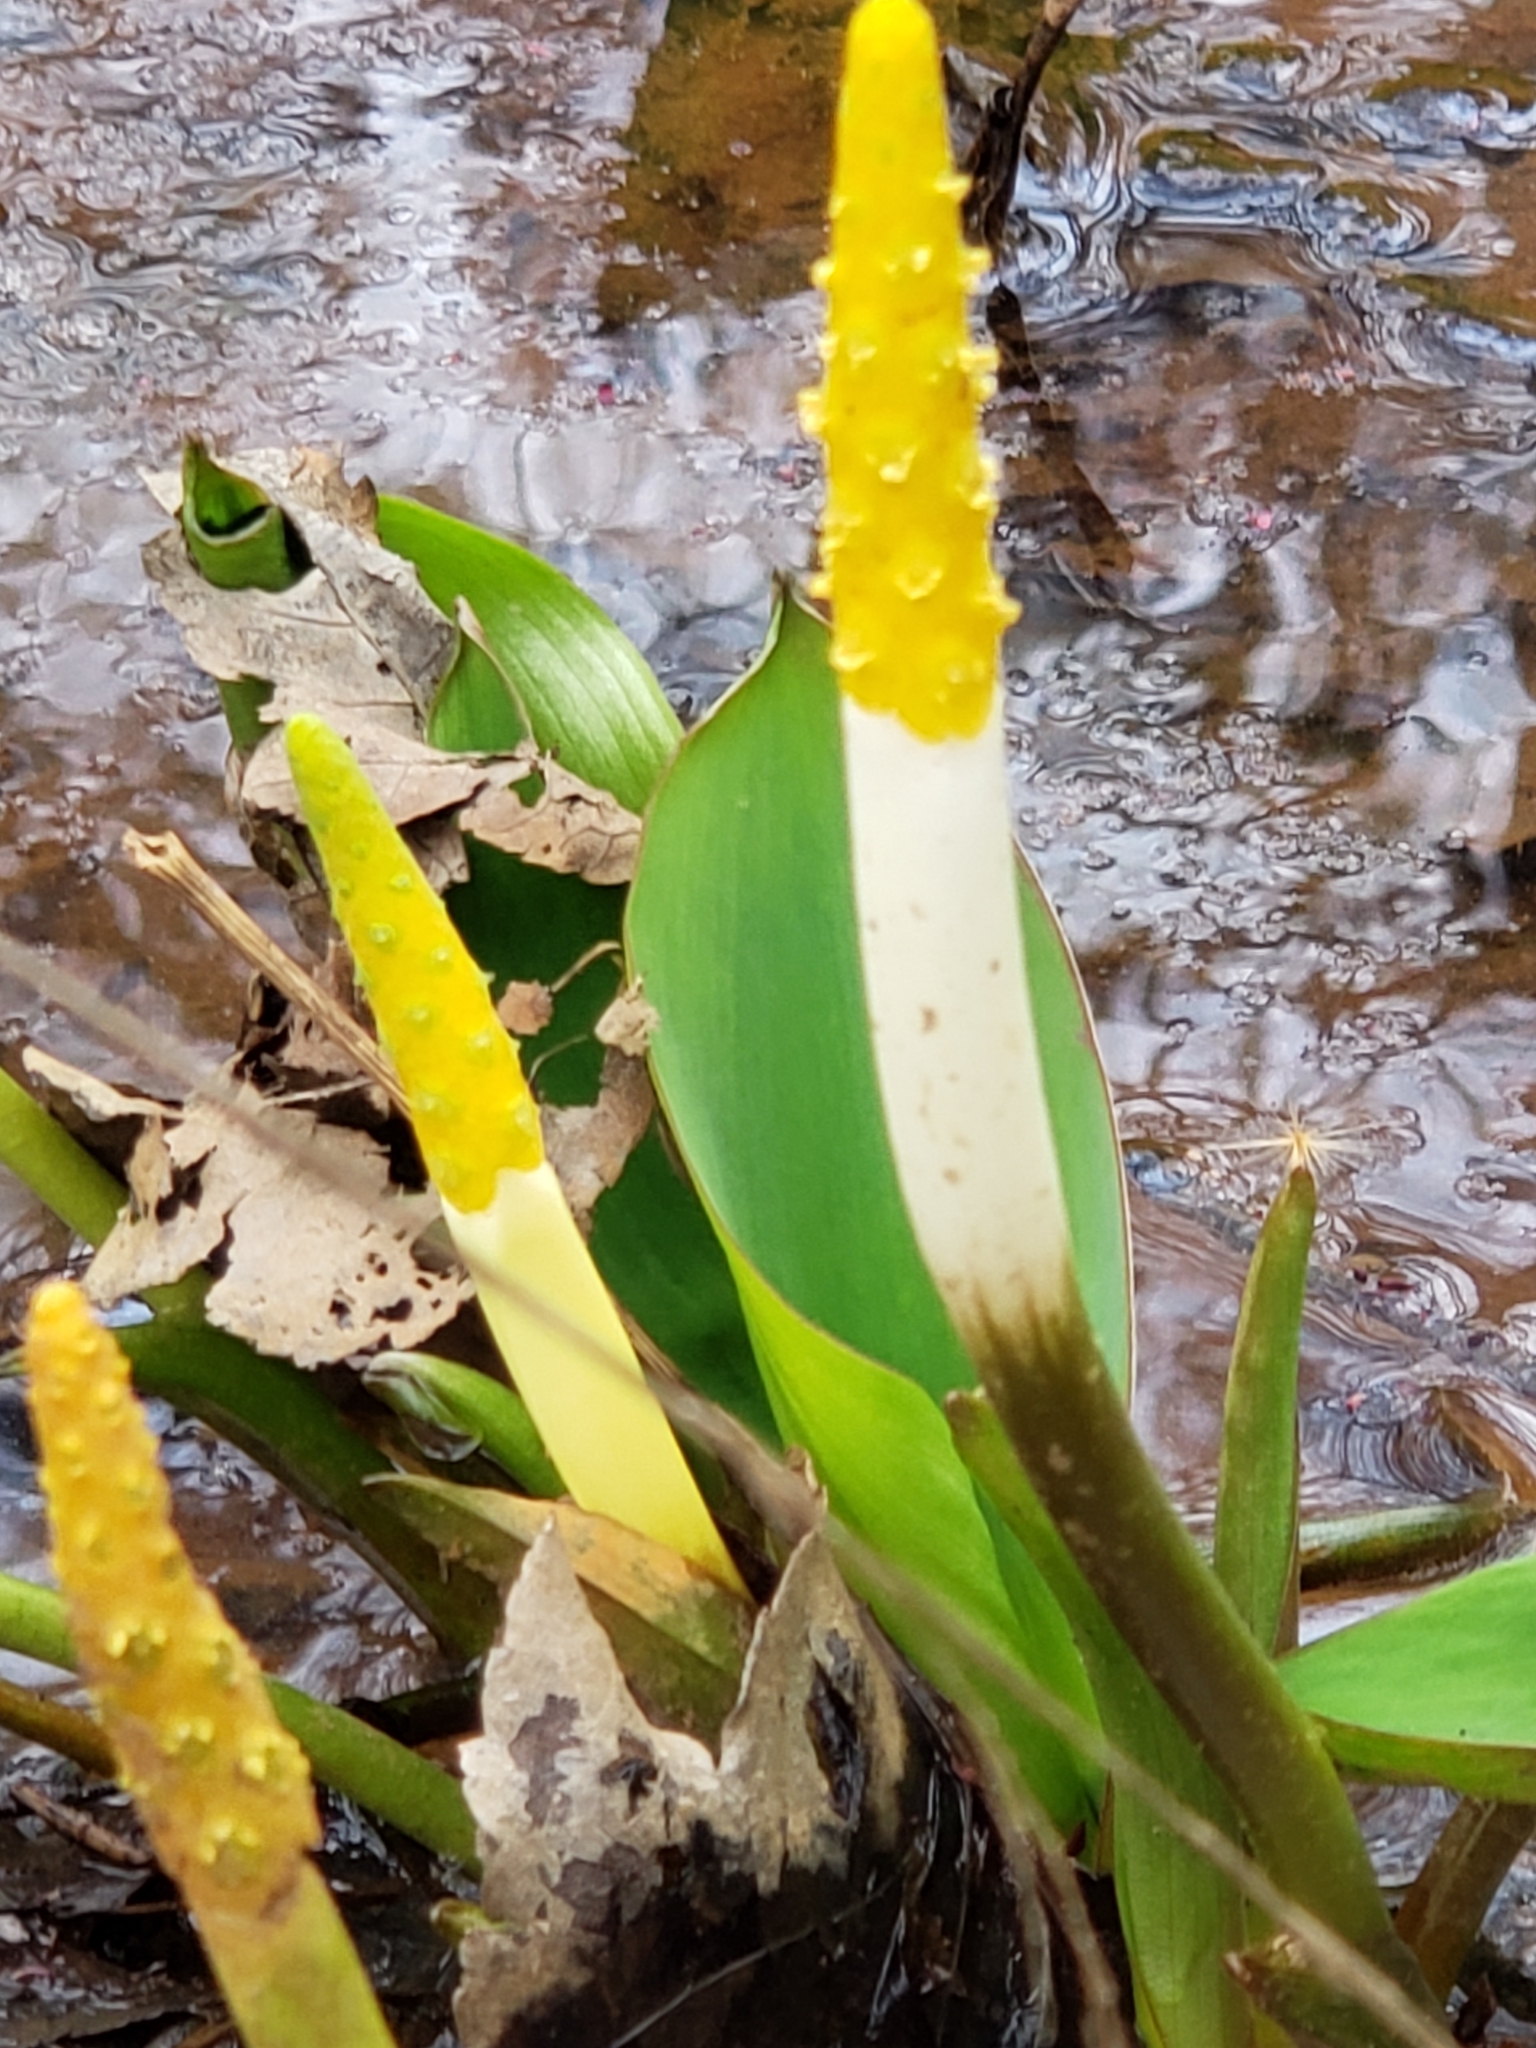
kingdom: Plantae
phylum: Tracheophyta
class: Liliopsida
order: Alismatales
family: Araceae
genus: Orontium
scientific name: Orontium aquaticum
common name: Golden-club
